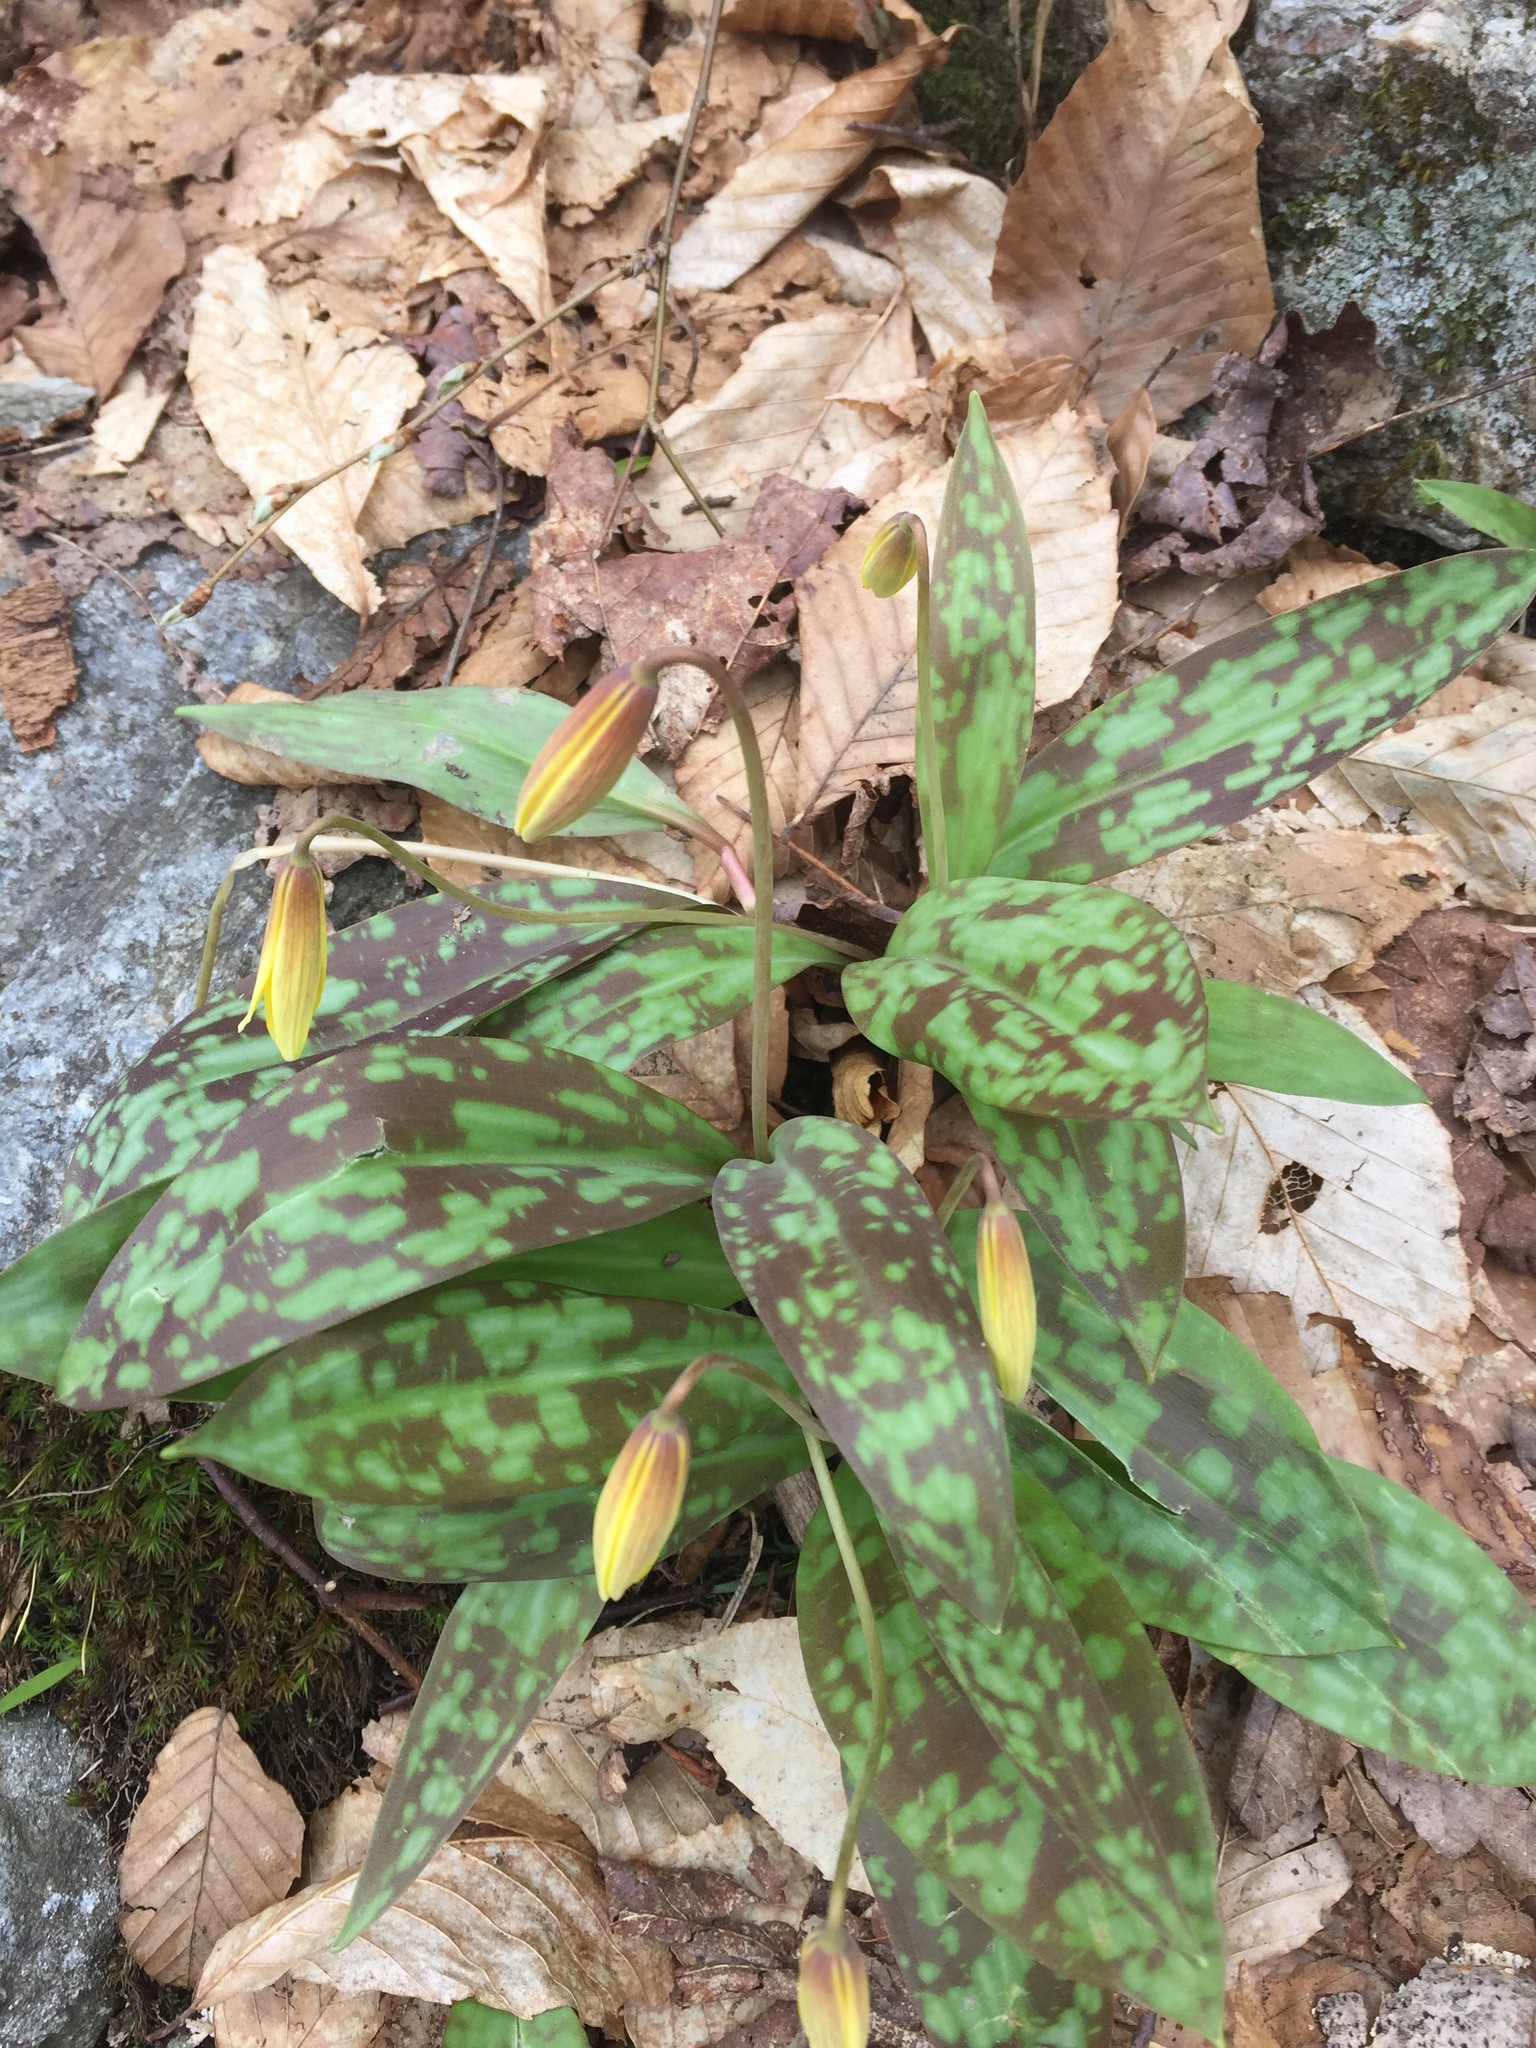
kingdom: Plantae
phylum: Tracheophyta
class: Liliopsida
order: Liliales
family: Liliaceae
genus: Erythronium
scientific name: Erythronium americanum
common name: Yellow adder's-tongue
